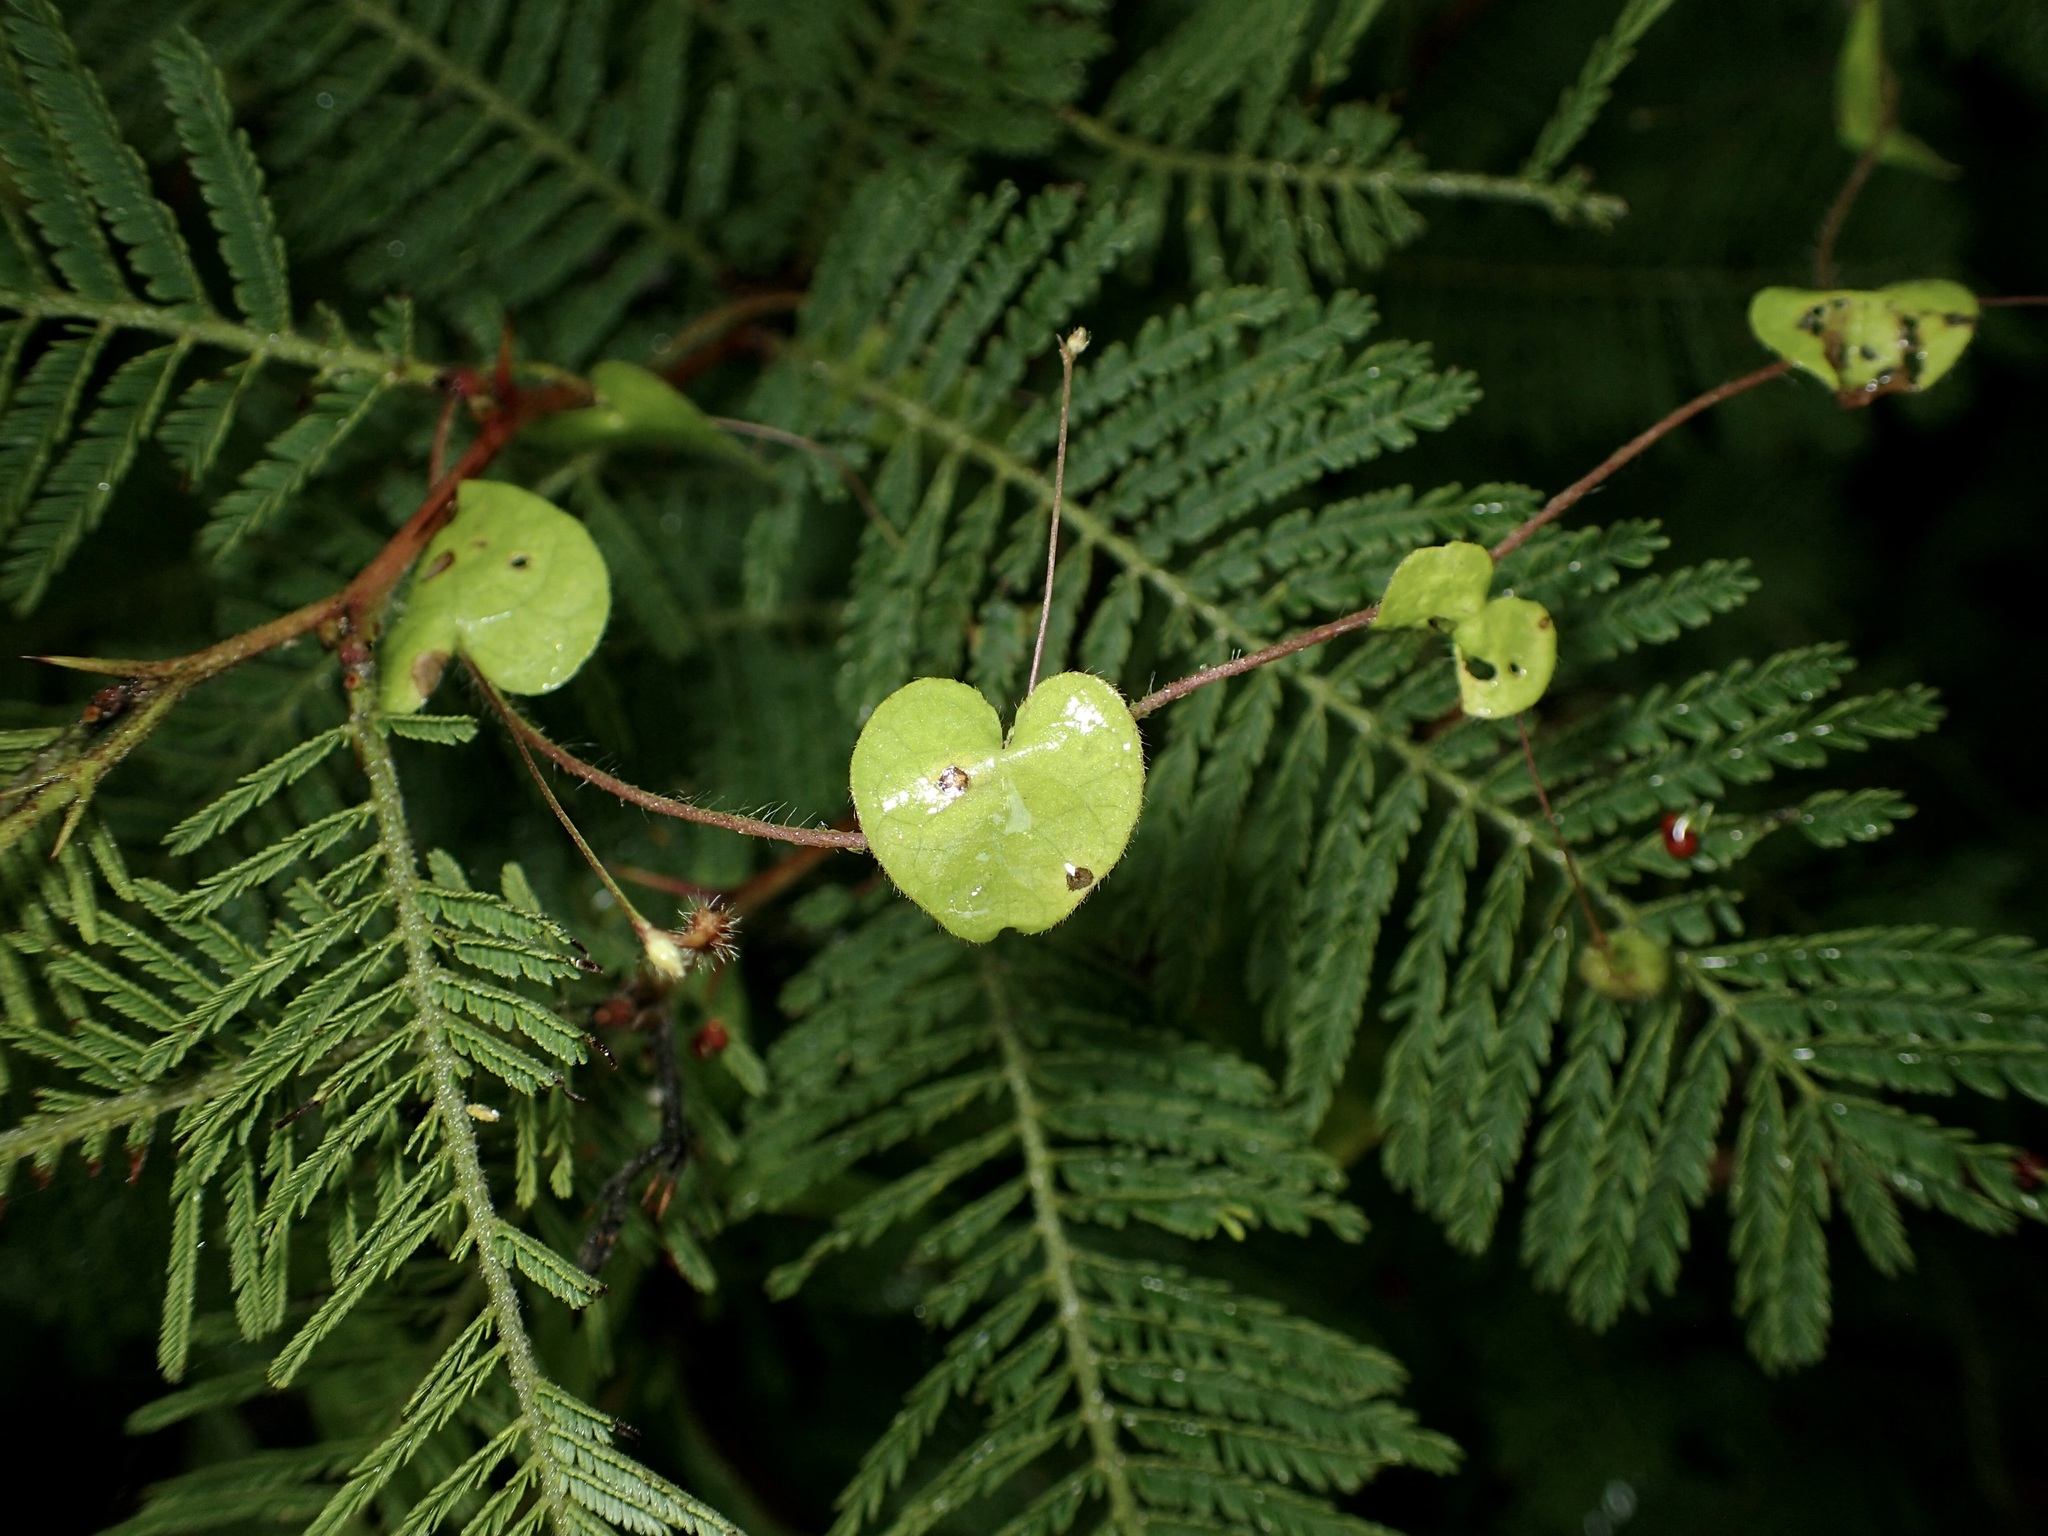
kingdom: Plantae
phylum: Tracheophyta
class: Magnoliopsida
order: Solanales
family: Convolvulaceae
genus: Ipomoea
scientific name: Ipomoea minutiflora
